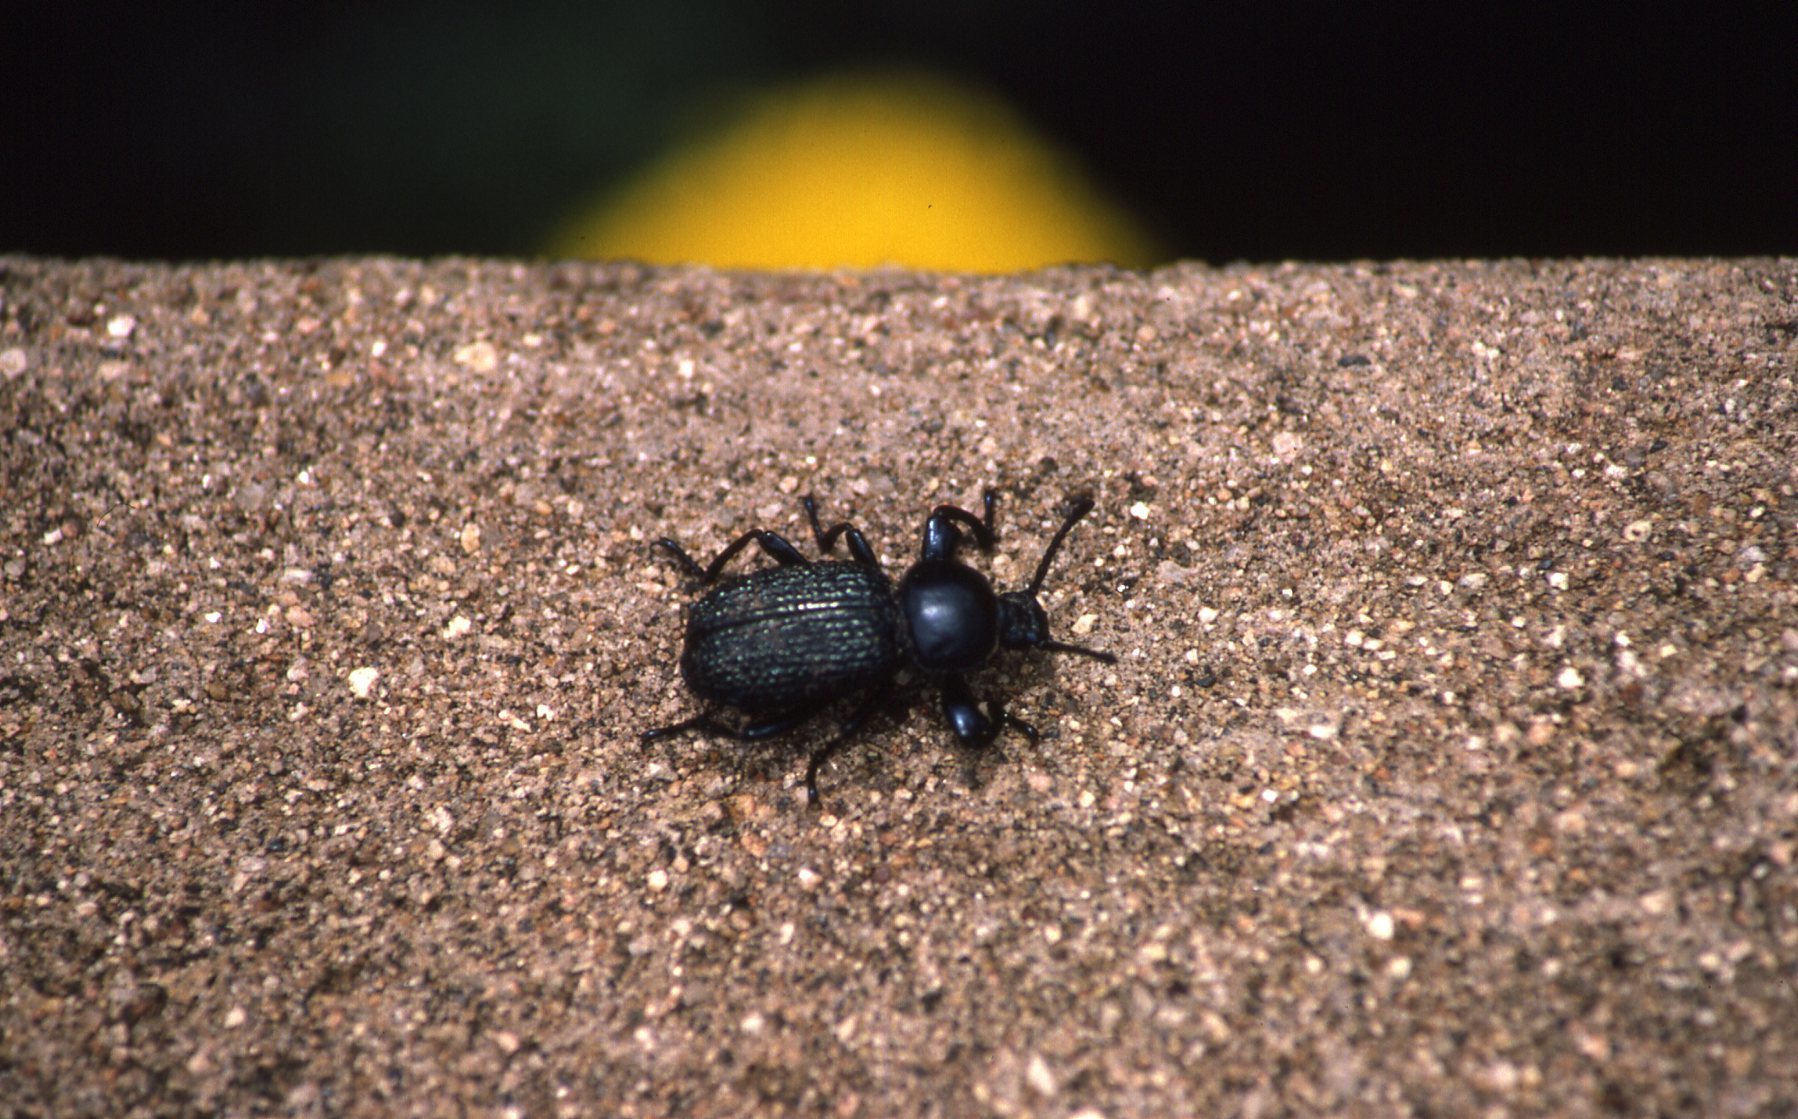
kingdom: Animalia
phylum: Arthropoda
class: Insecta
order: Coleoptera
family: Tenebrionidae
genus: Catamerus
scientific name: Catamerus
